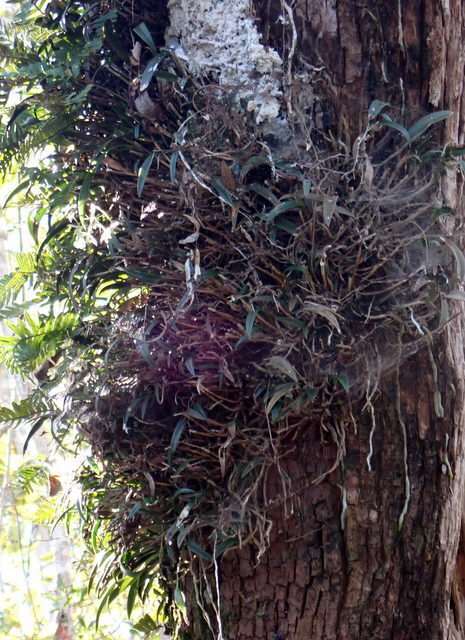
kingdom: Plantae
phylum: Tracheophyta
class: Liliopsida
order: Asparagales
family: Orchidaceae
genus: Epidendrum
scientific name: Epidendrum conopseum
